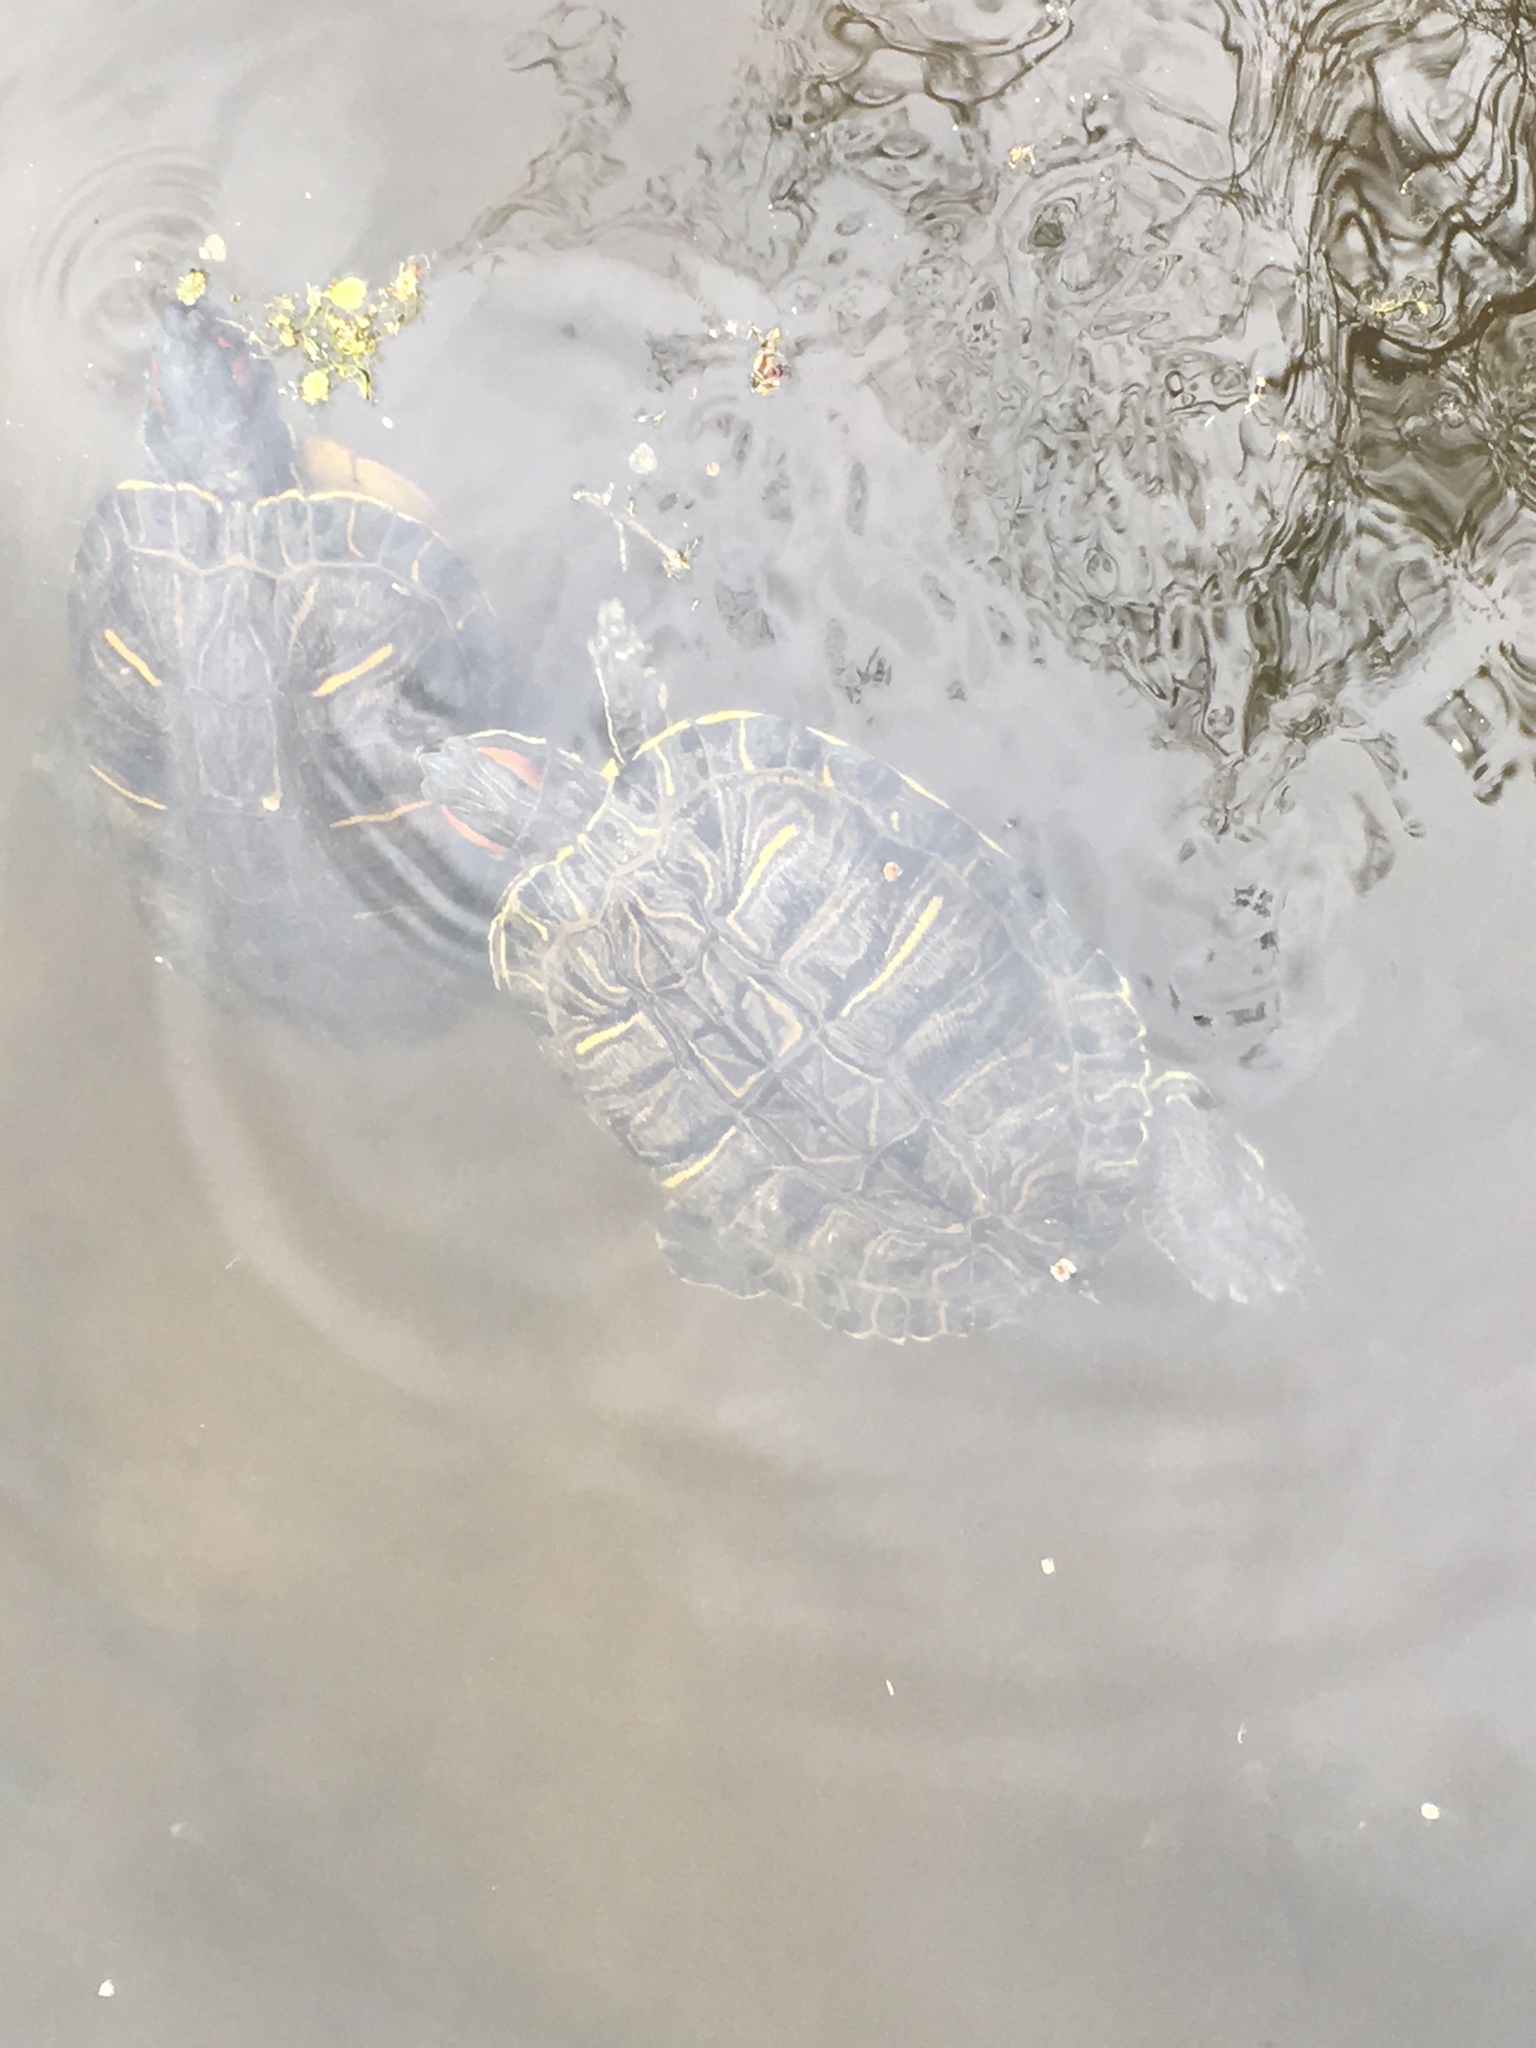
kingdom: Animalia
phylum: Chordata
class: Testudines
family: Emydidae
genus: Trachemys
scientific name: Trachemys scripta
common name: Slider
